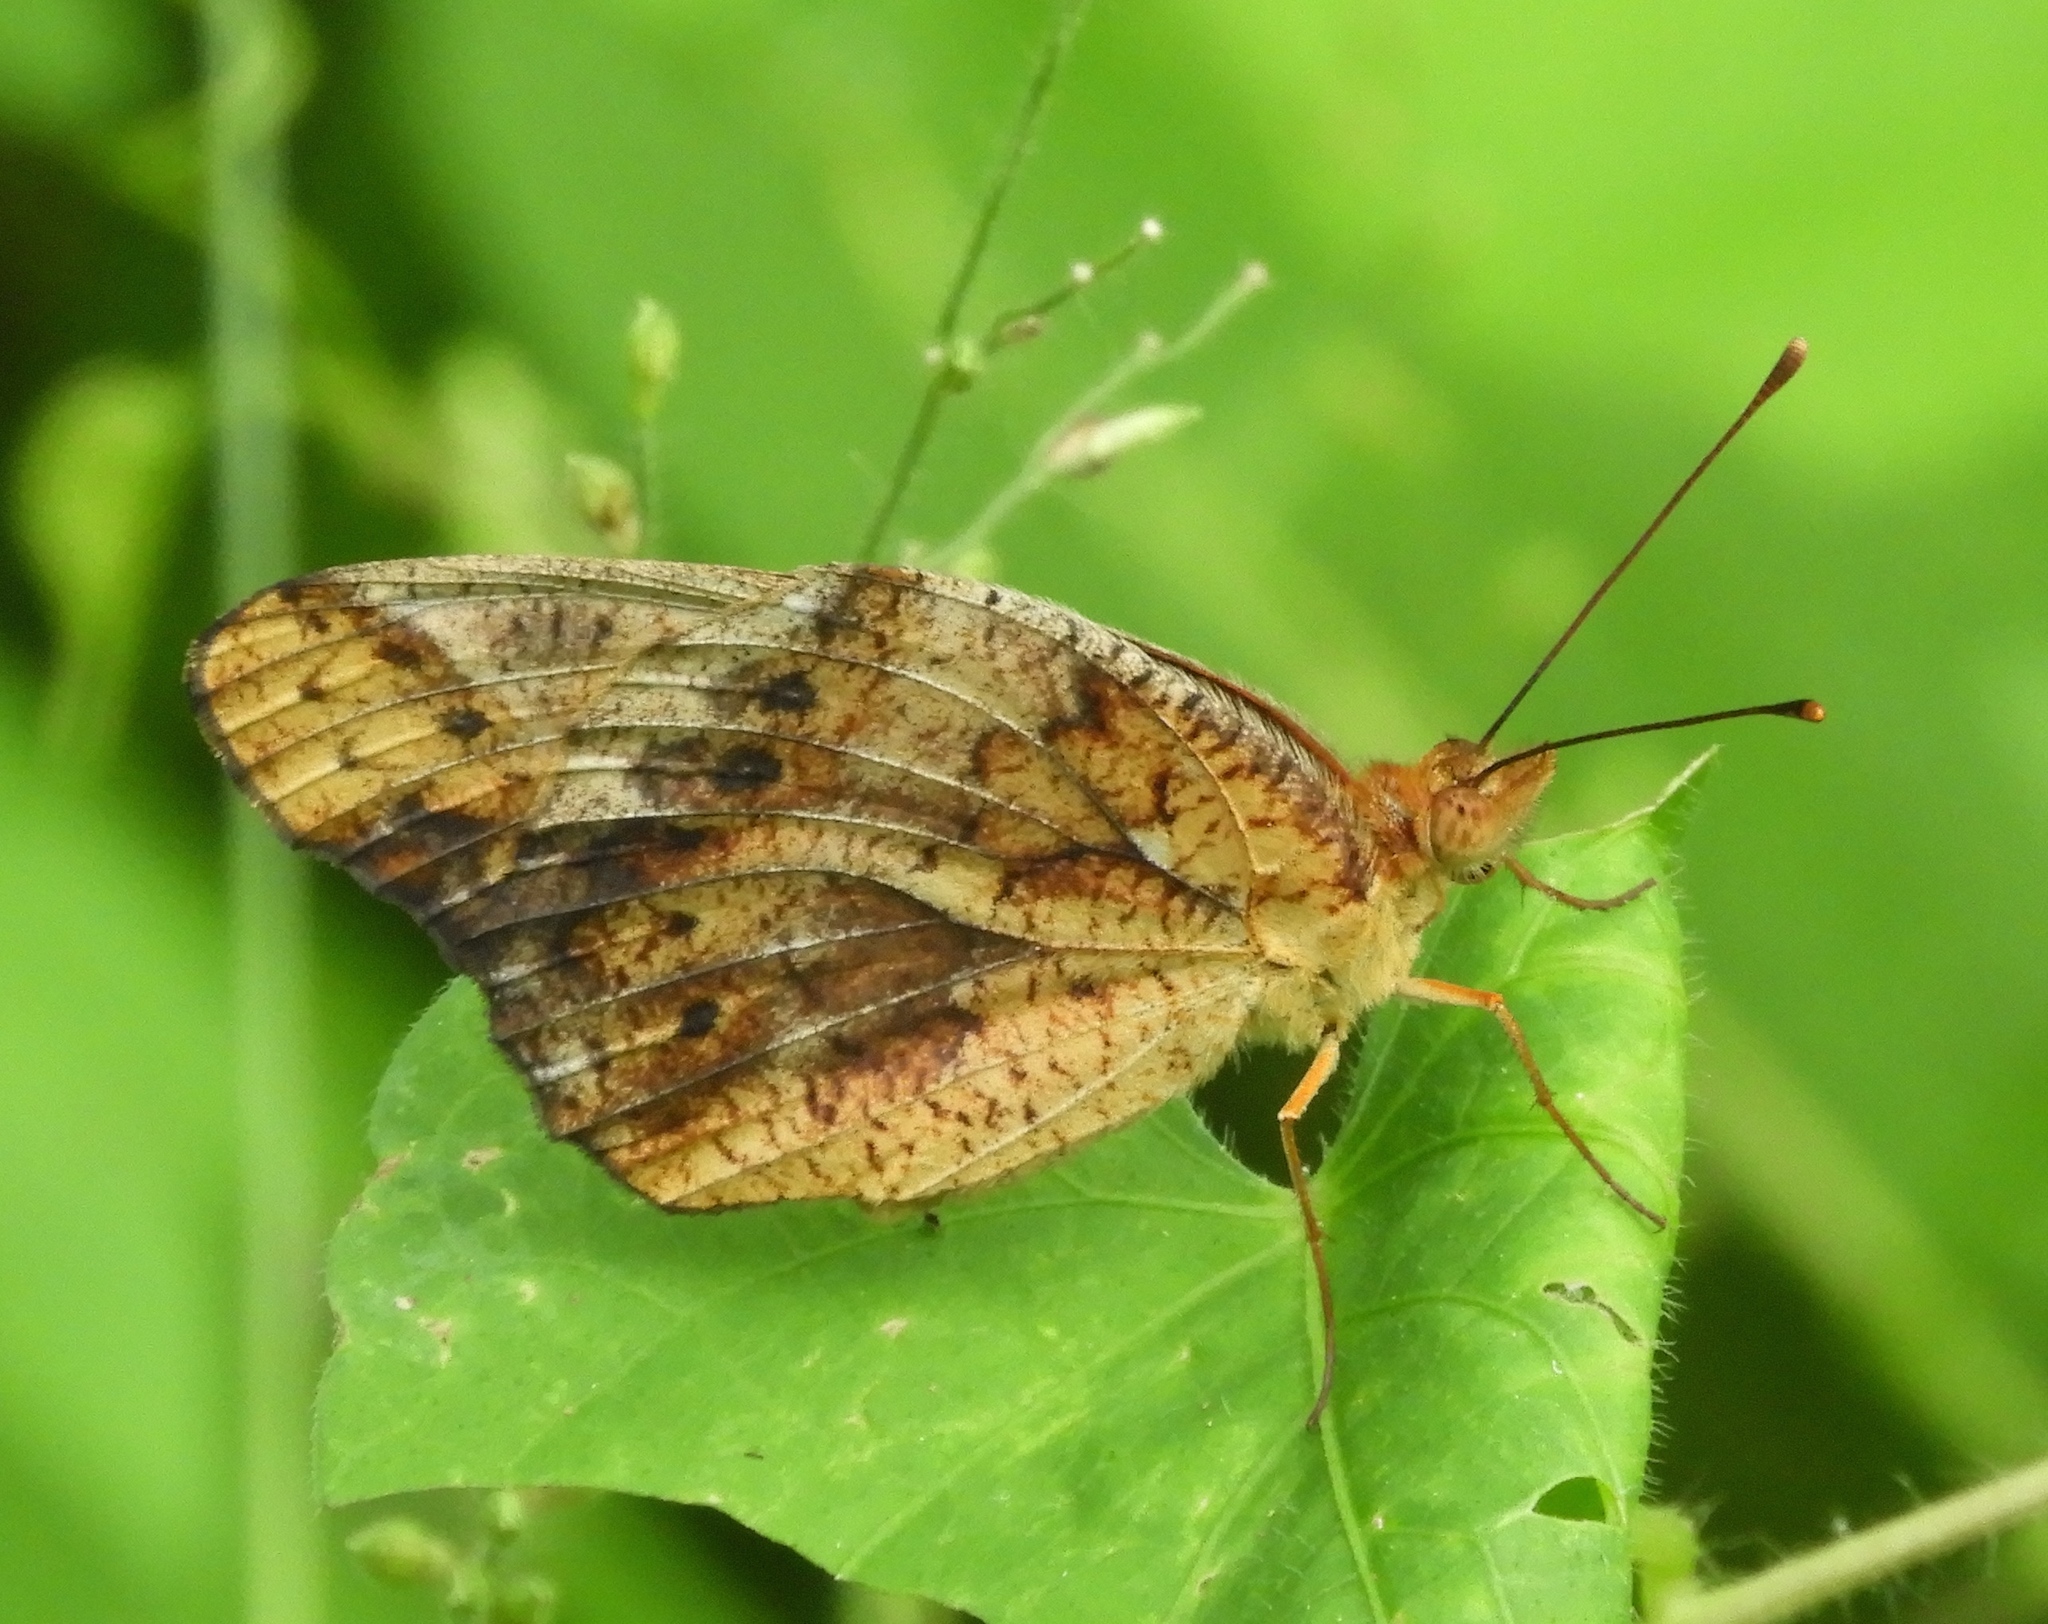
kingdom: Animalia
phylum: Arthropoda
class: Insecta
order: Lepidoptera
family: Nymphalidae
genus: Euptoieta
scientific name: Euptoieta hegesia
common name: Mexican fritillary
